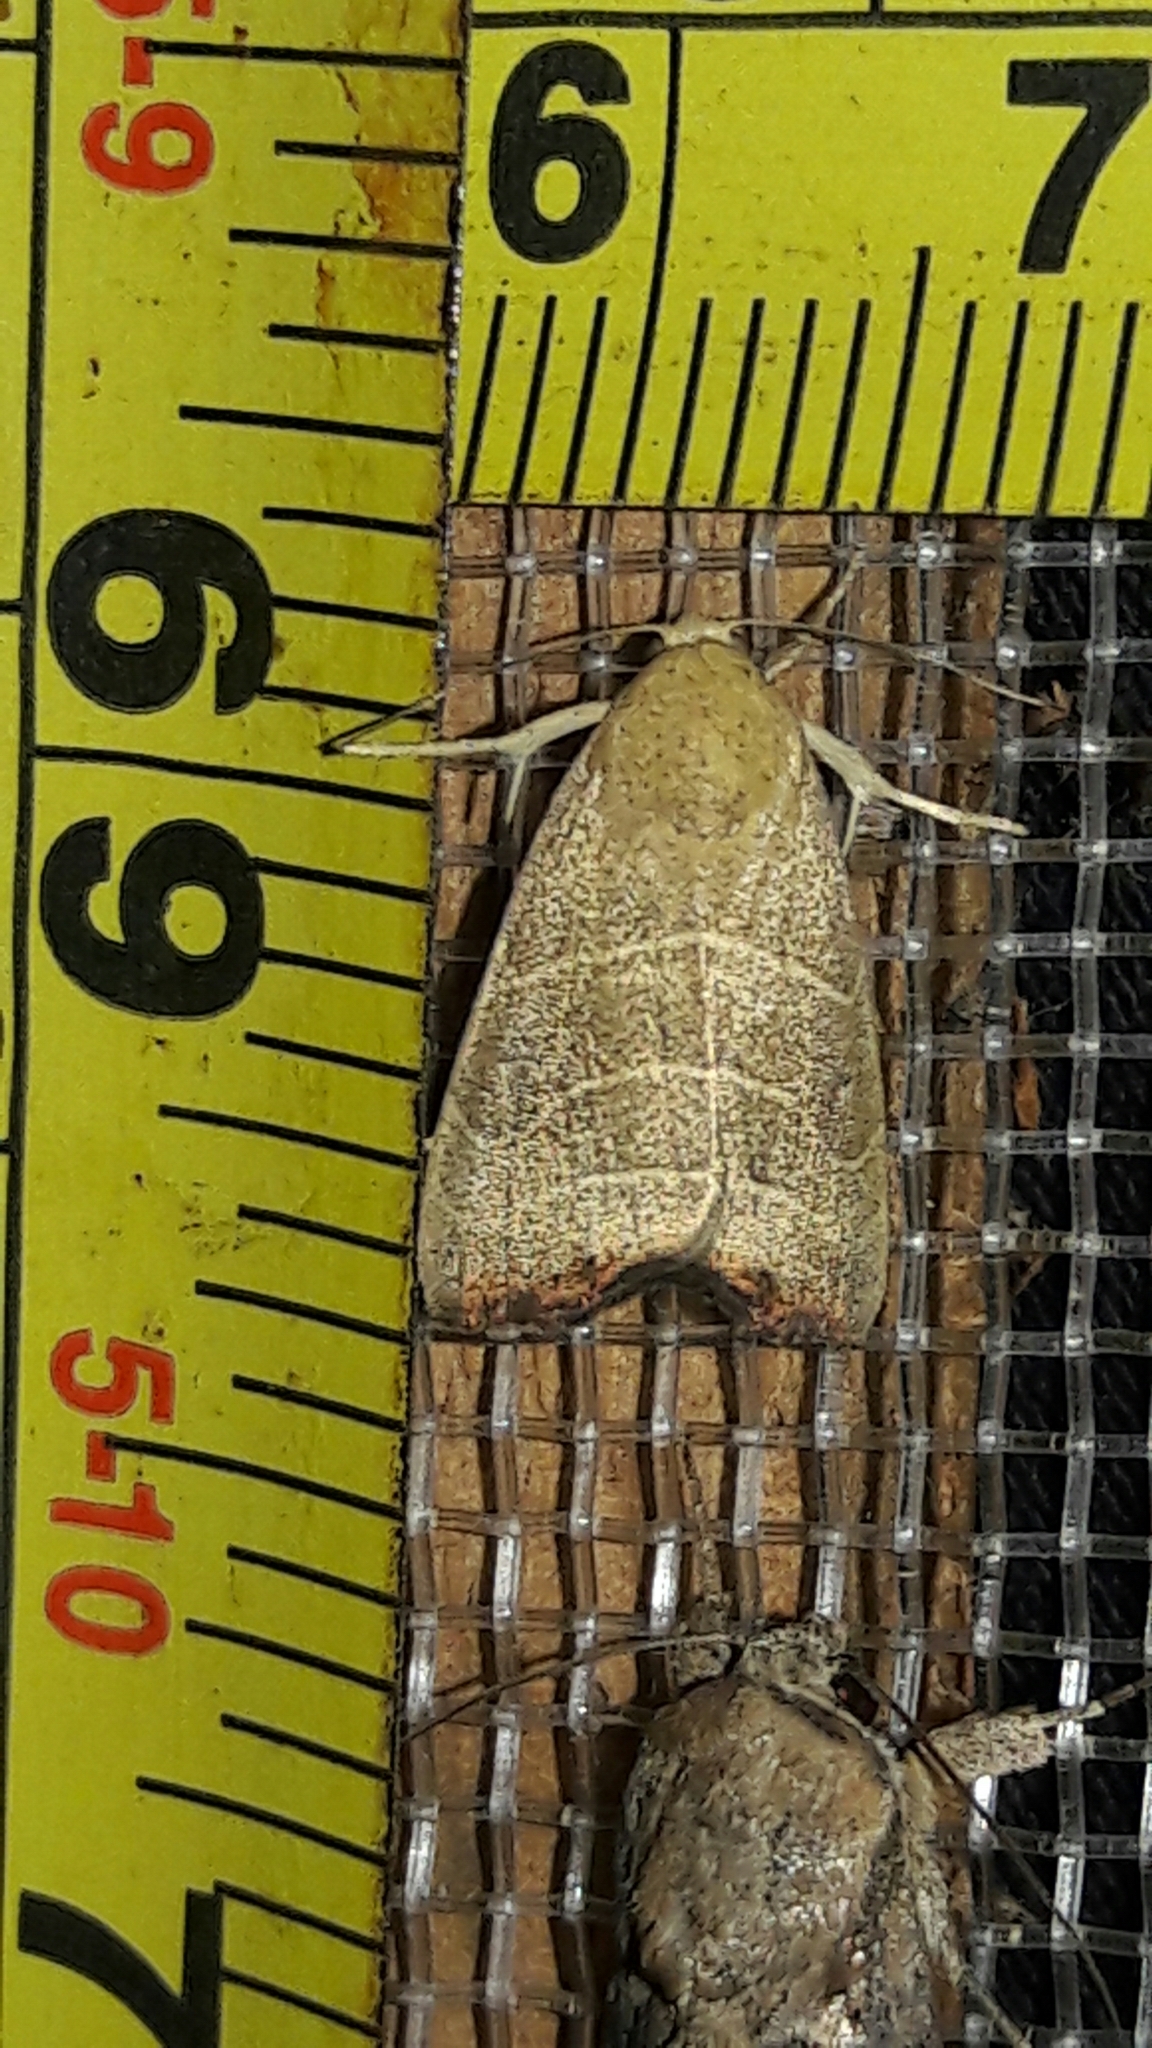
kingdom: Animalia
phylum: Arthropoda
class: Insecta
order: Lepidoptera
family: Noctuidae
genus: Bagisara
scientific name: Bagisara repanda
